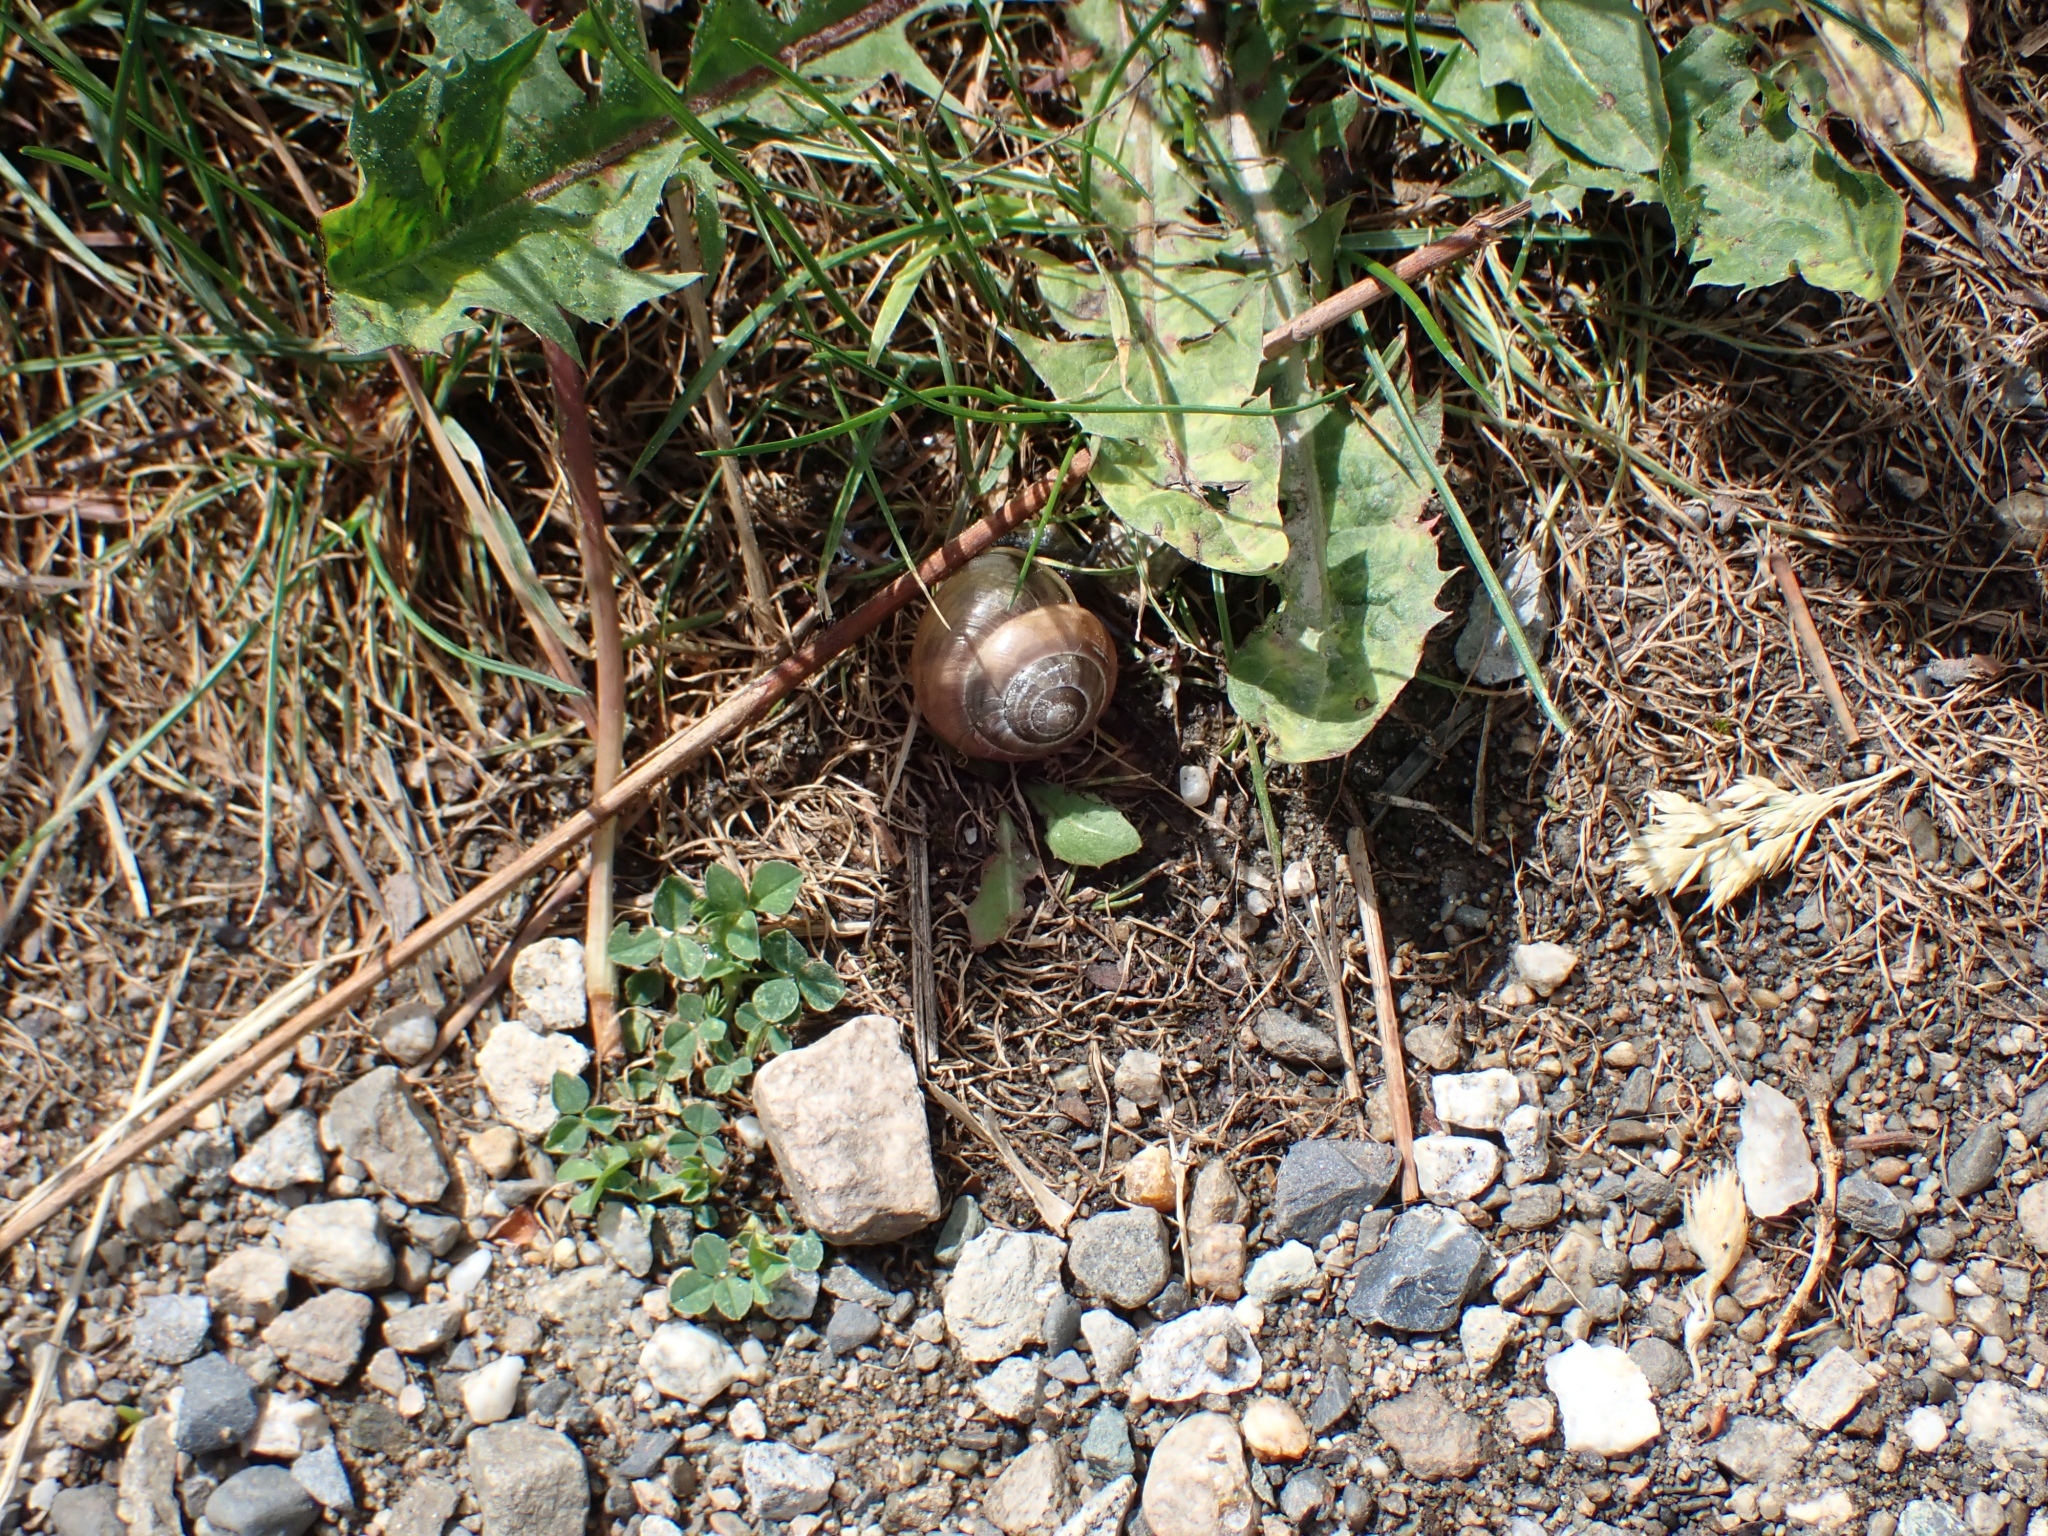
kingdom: Animalia
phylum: Mollusca
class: Gastropoda
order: Stylommatophora
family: Helicidae
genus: Cepaea
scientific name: Cepaea nemoralis
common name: Grovesnail
